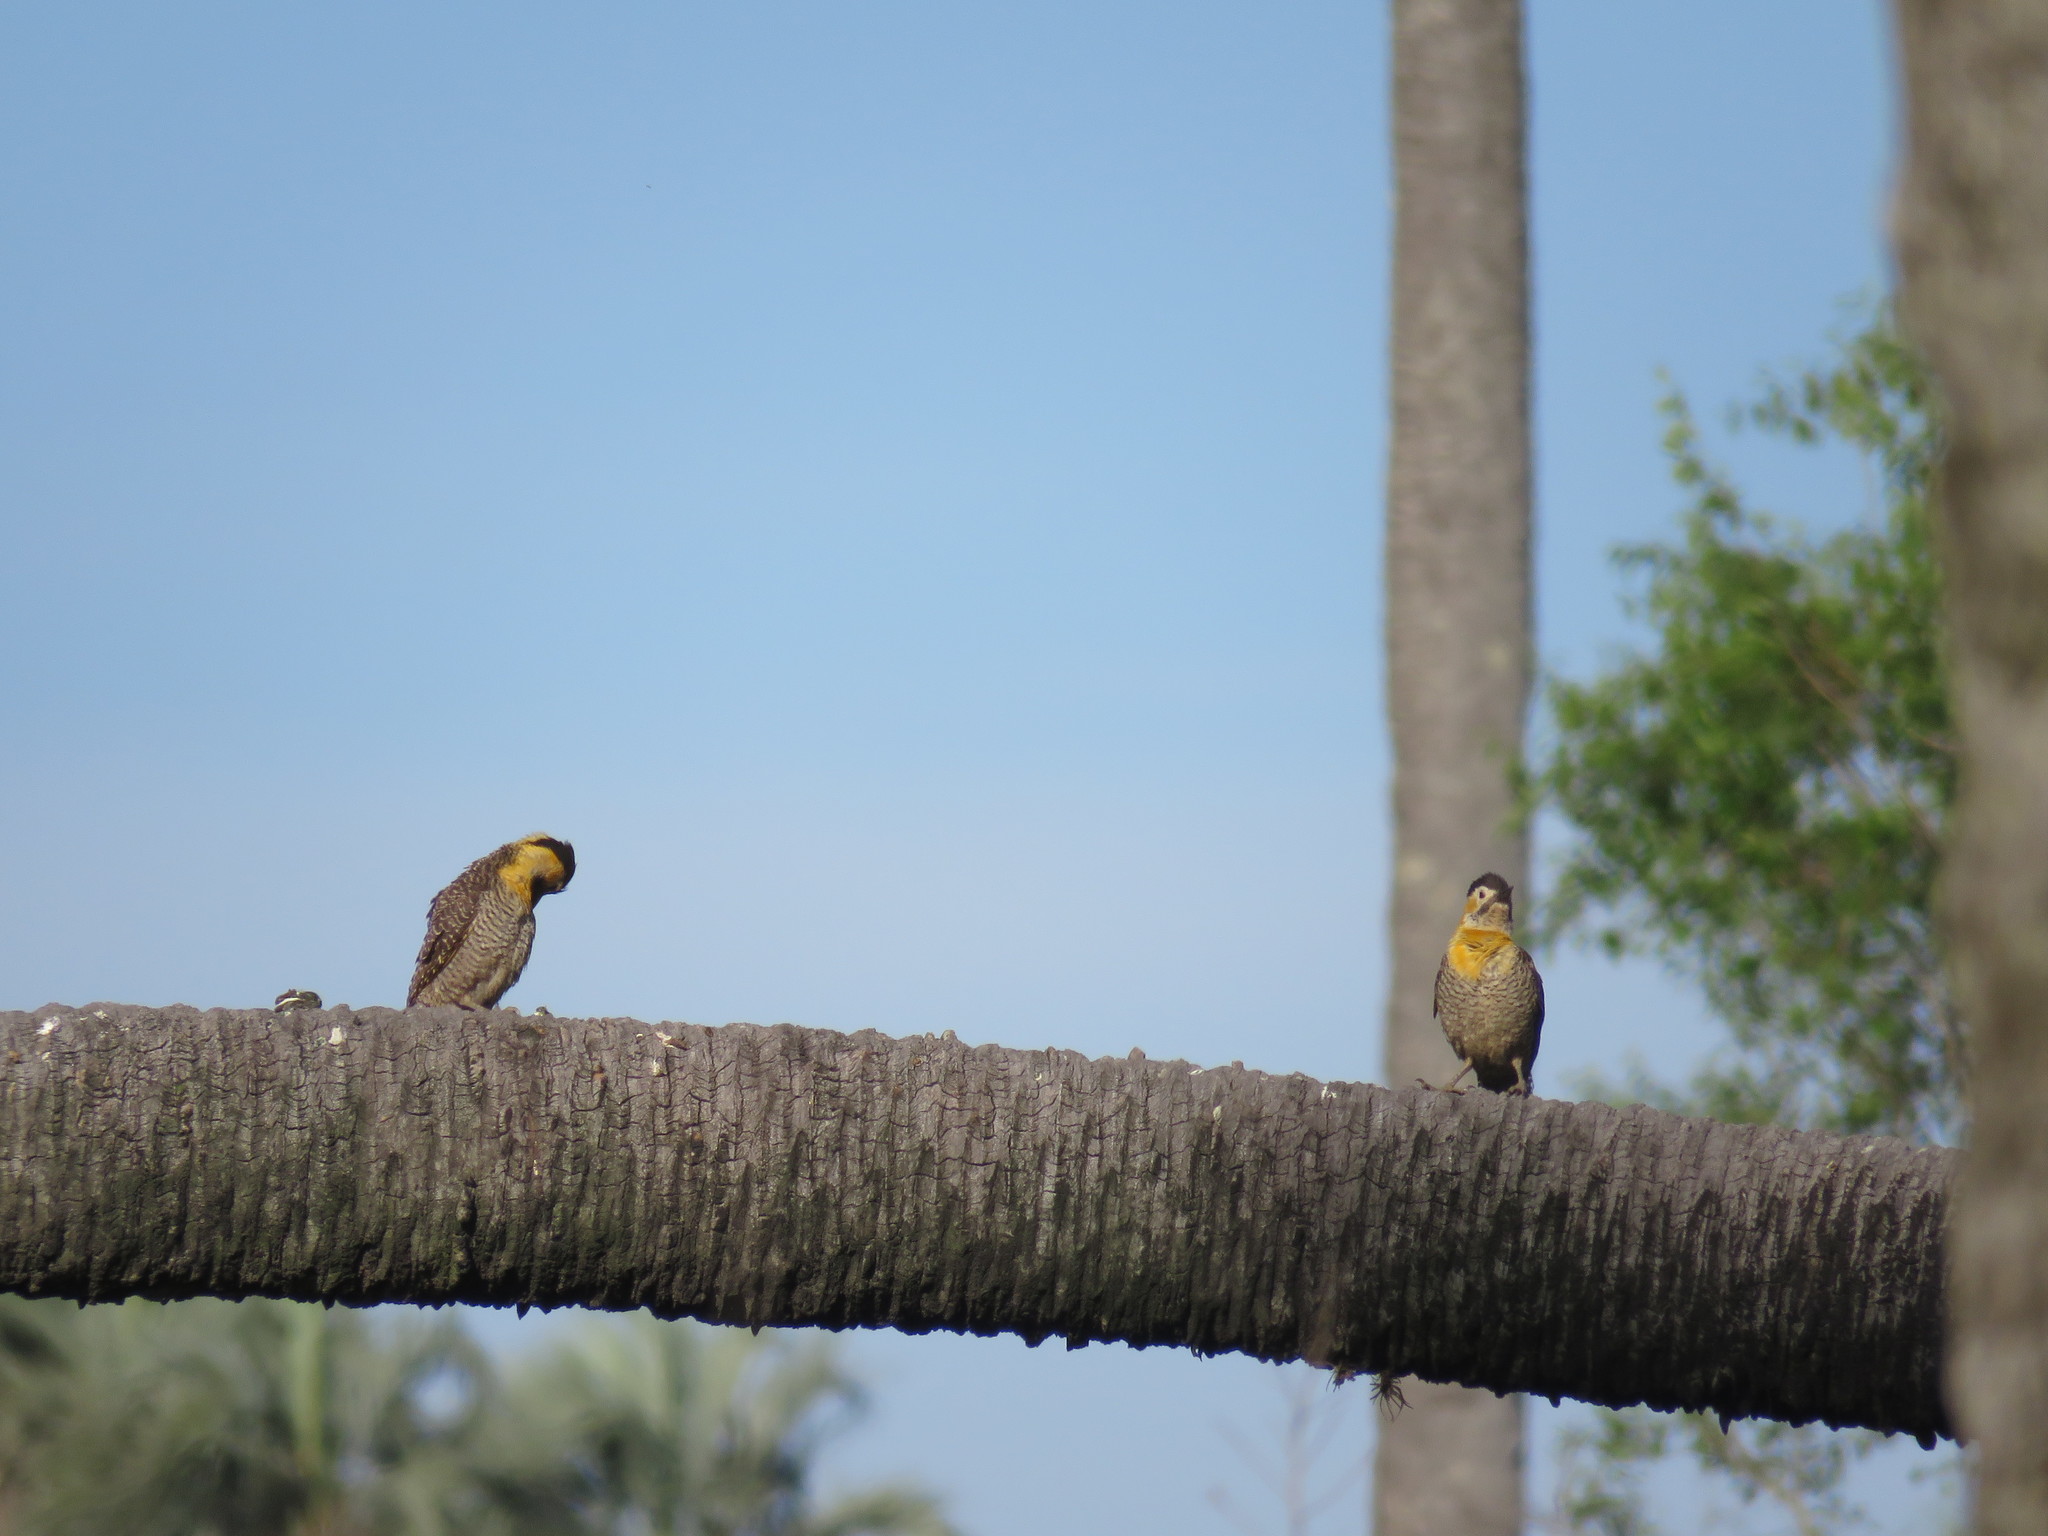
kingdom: Animalia
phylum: Chordata
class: Aves
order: Piciformes
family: Picidae
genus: Colaptes
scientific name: Colaptes campestris
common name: Campo flicker
